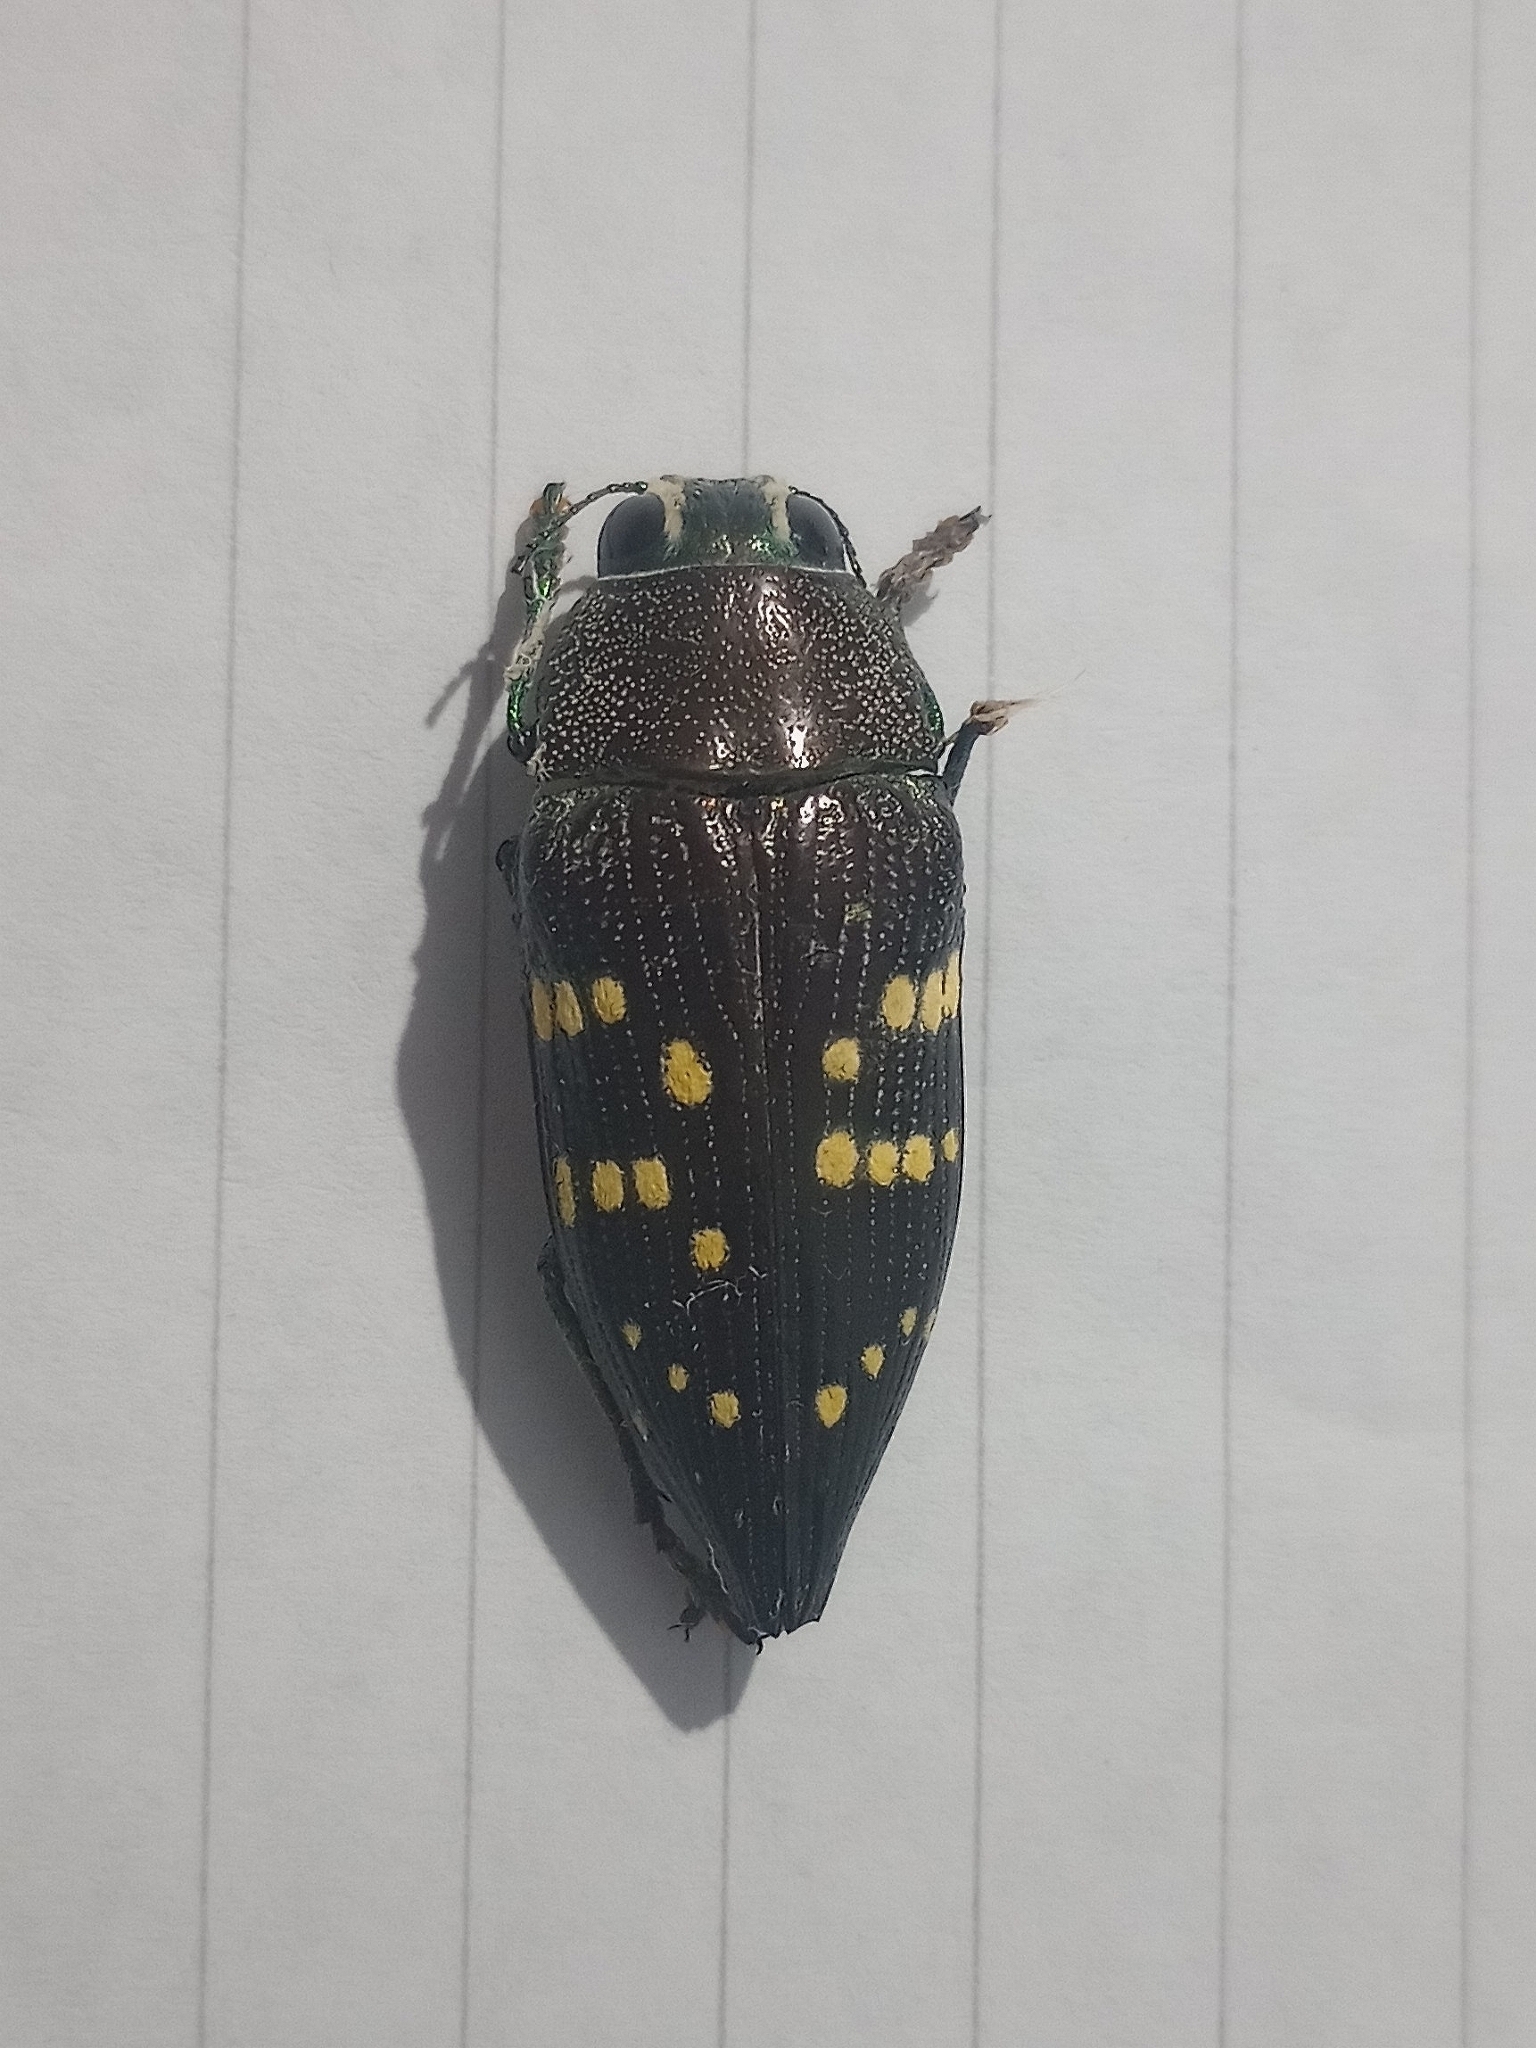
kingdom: Animalia
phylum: Arthropoda
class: Insecta
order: Coleoptera
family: Buprestidae
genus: Lampetis
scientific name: Lampetis tucumana
